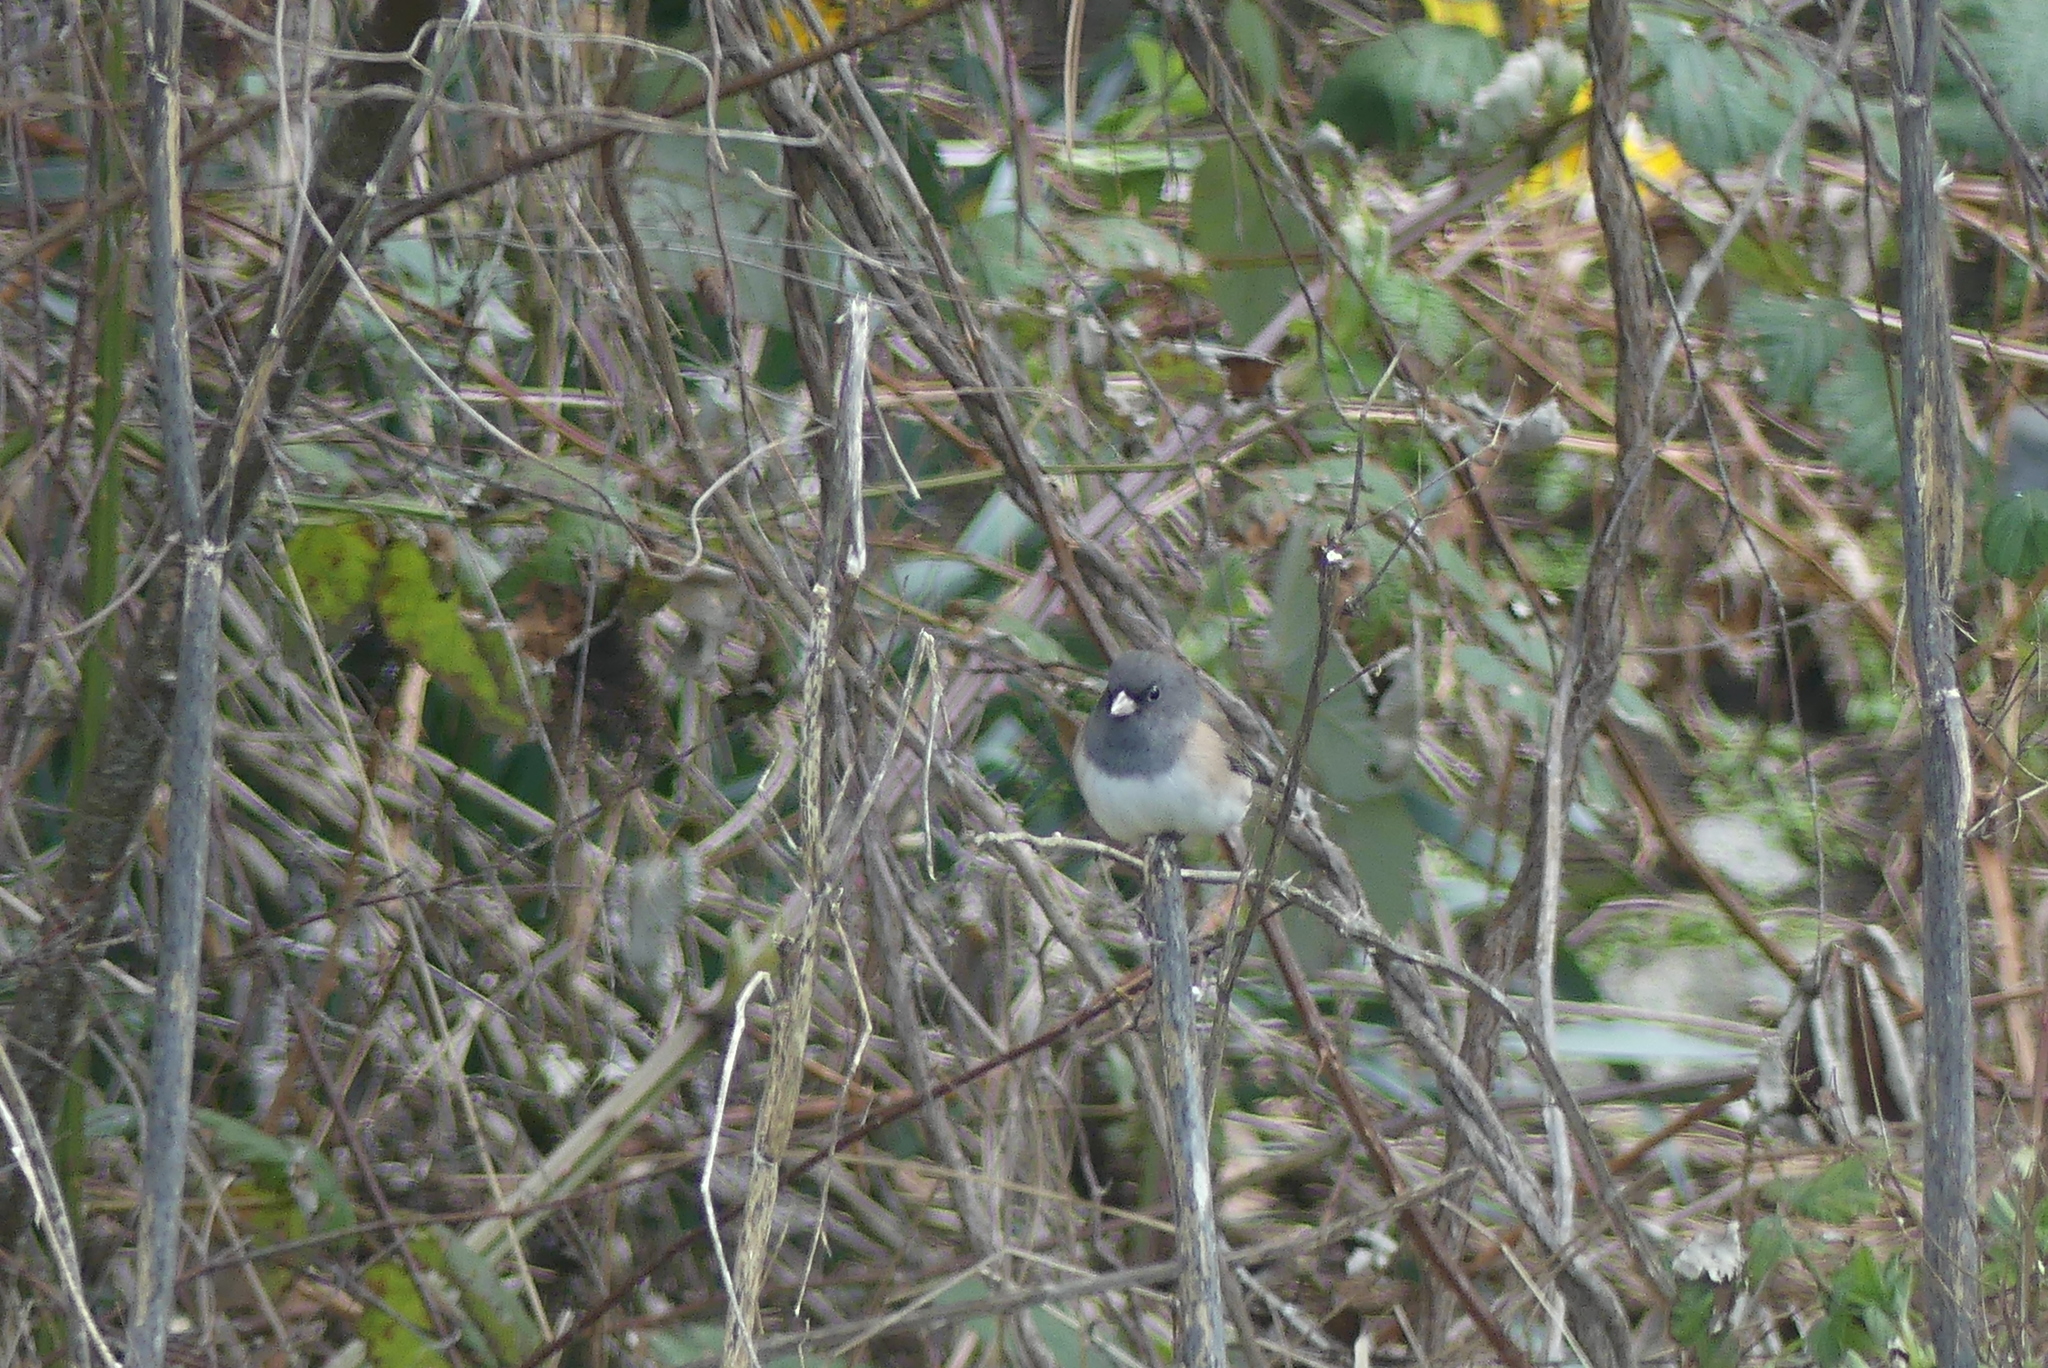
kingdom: Animalia
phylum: Chordata
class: Aves
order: Passeriformes
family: Passerellidae
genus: Junco
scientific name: Junco hyemalis
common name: Dark-eyed junco
